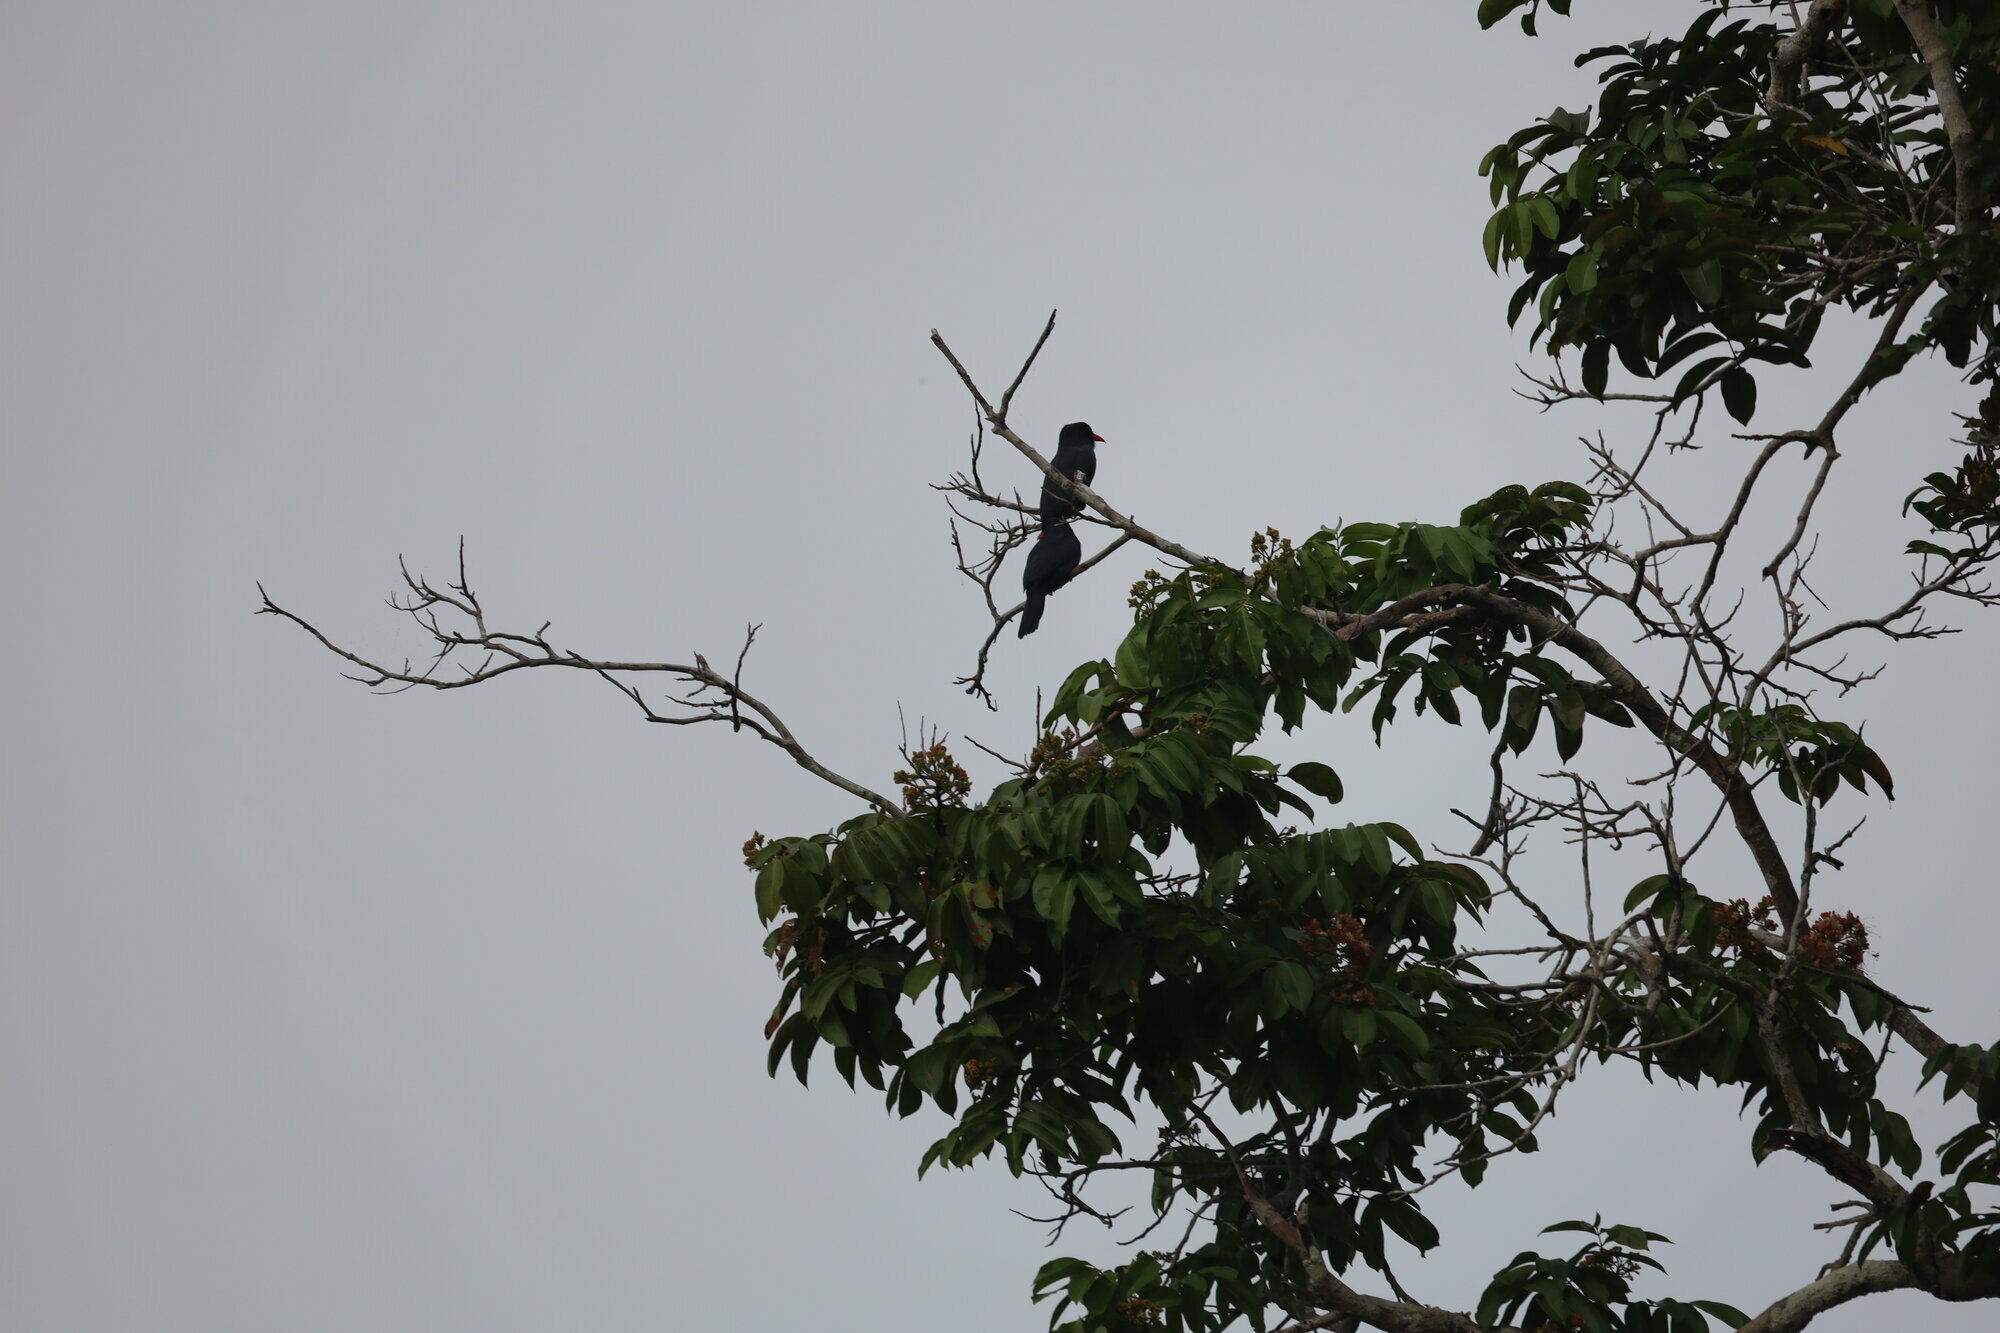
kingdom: Animalia
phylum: Chordata
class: Aves
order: Piciformes
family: Bucconidae
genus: Monasa
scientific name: Monasa nigrifrons
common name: Black-fronted nunbird
